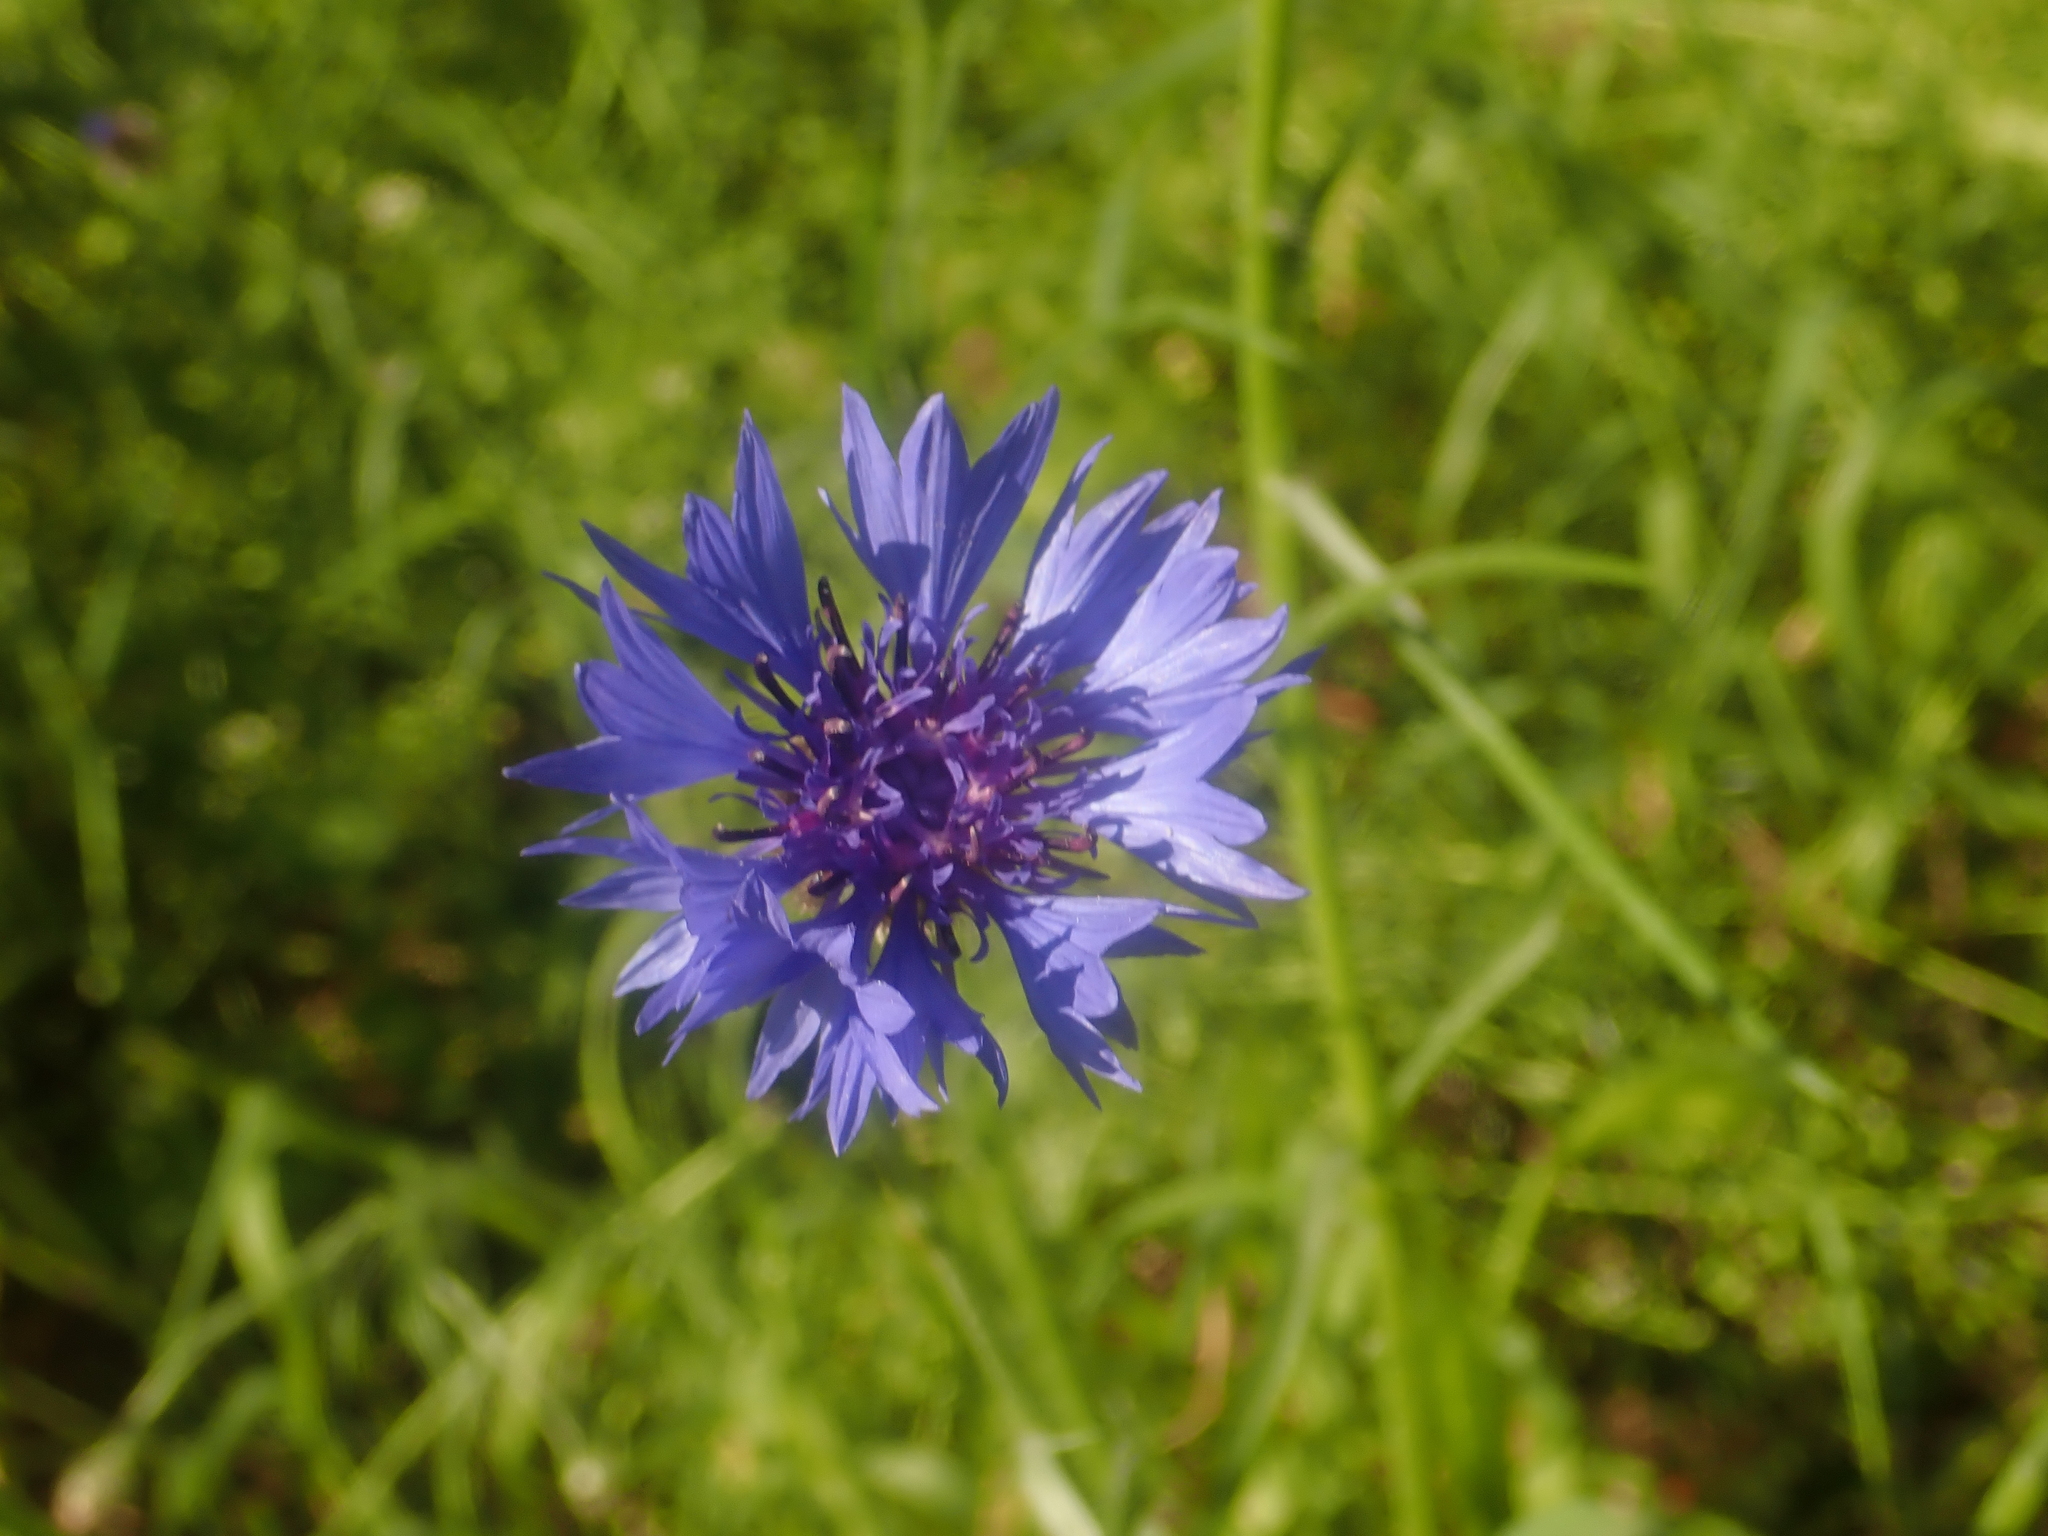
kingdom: Plantae
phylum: Tracheophyta
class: Magnoliopsida
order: Asterales
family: Asteraceae
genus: Centaurea
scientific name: Centaurea cyanus
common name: Cornflower
